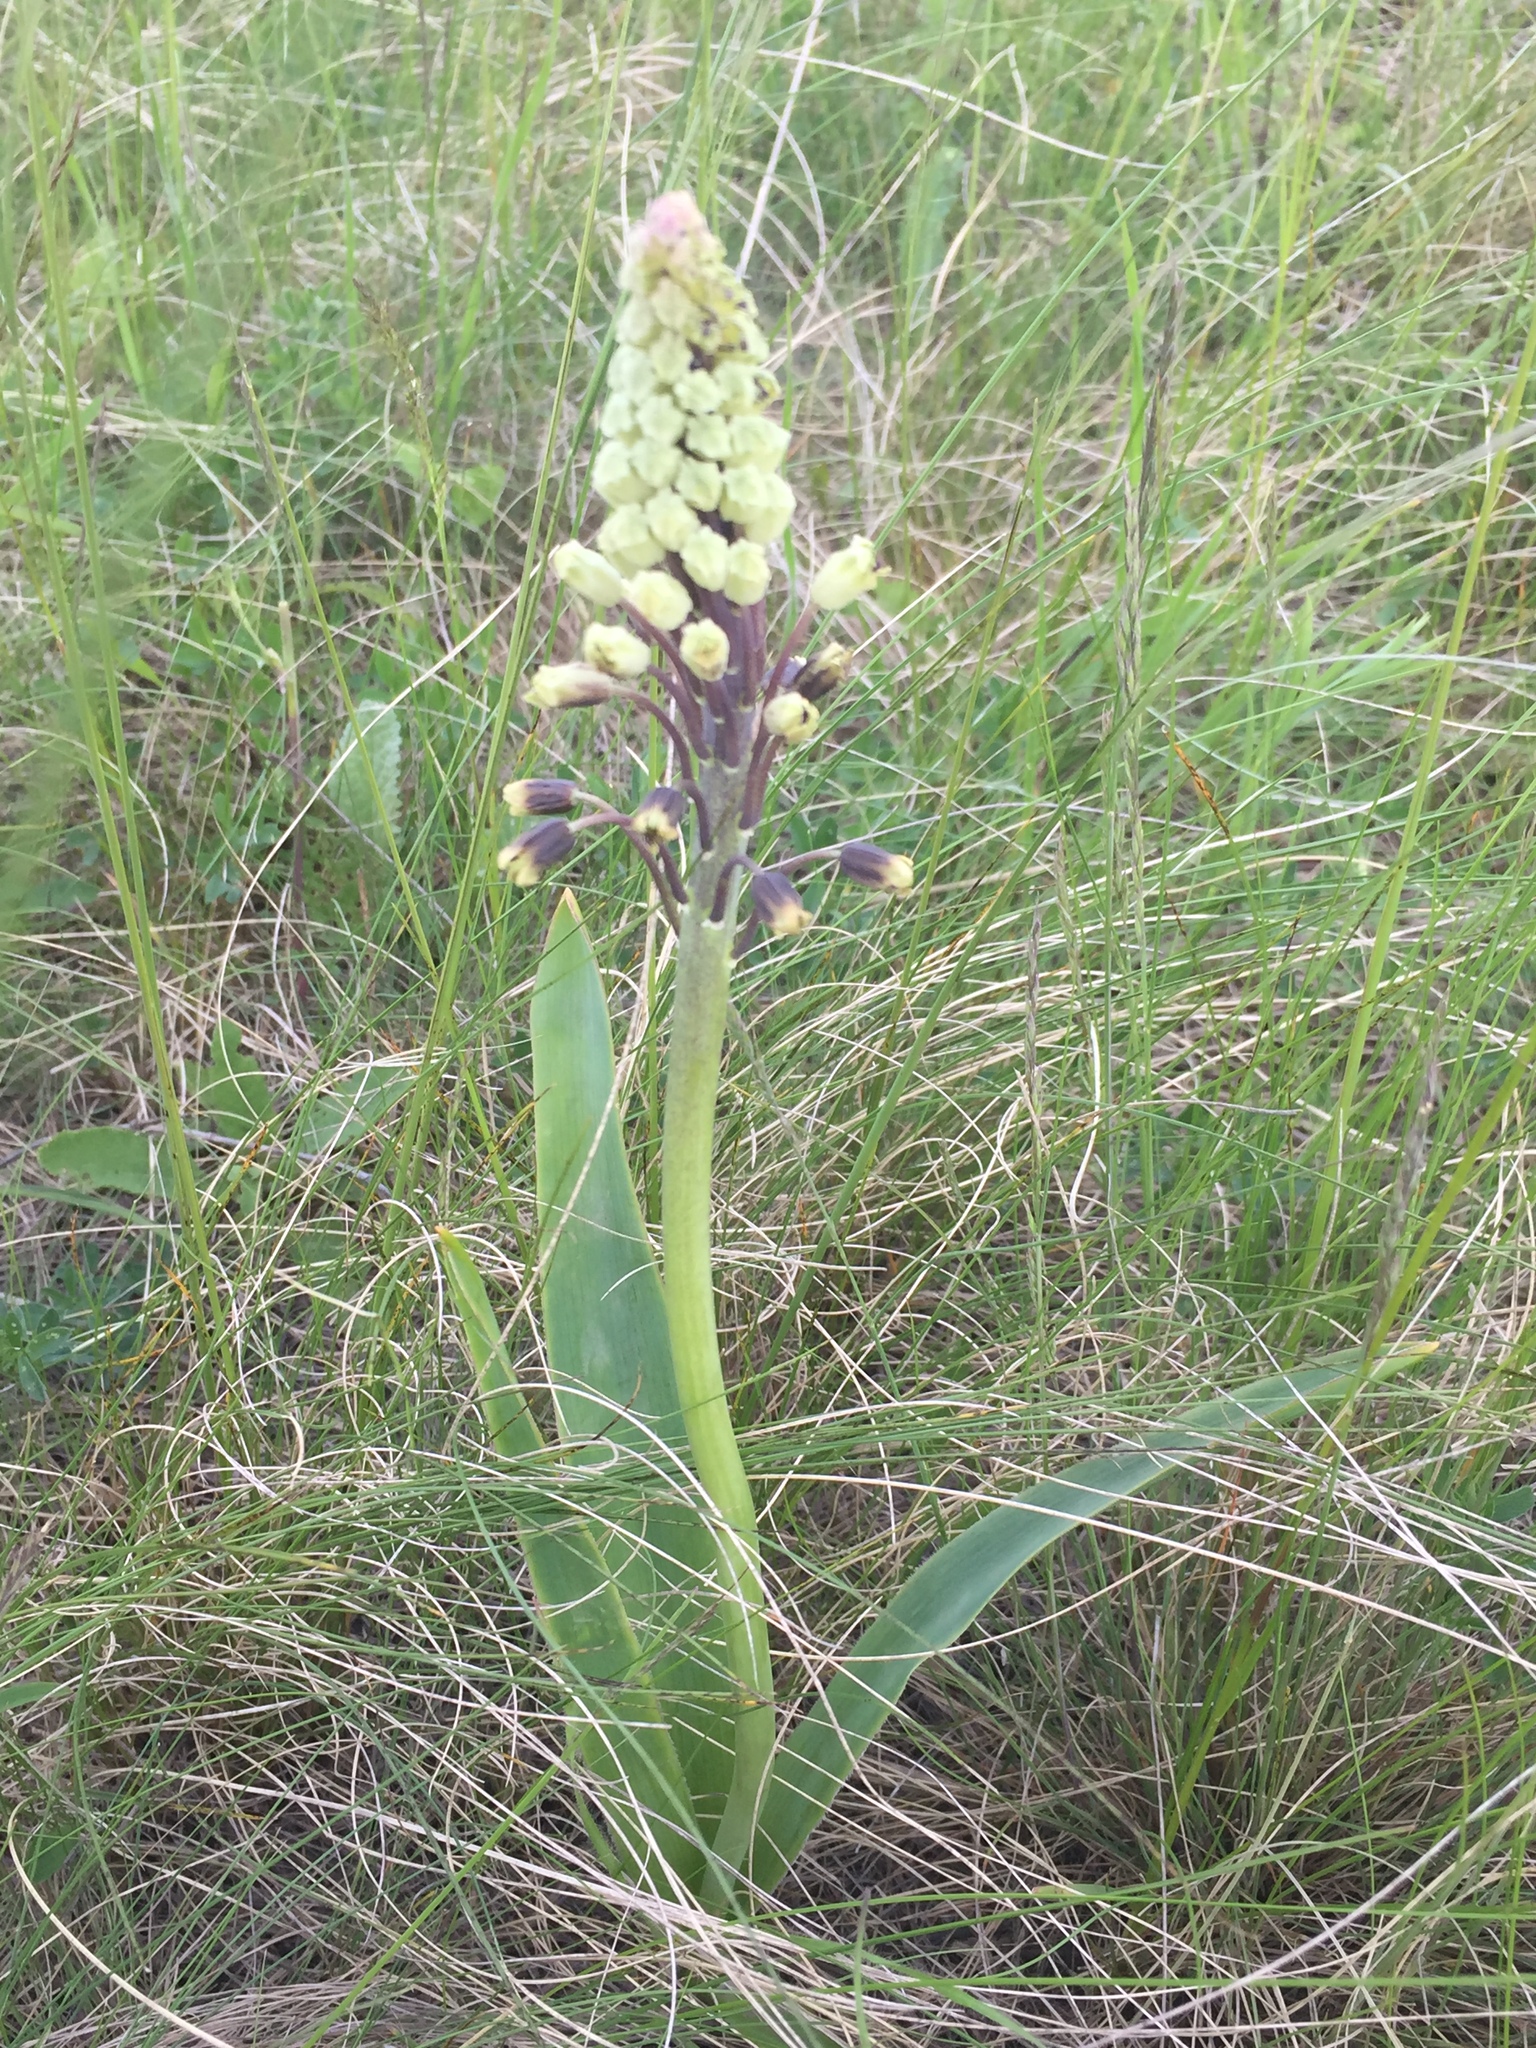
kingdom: Plantae
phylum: Tracheophyta
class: Liliopsida
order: Asparagales
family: Asparagaceae
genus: Bellevalia
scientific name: Bellevalia speciosa
